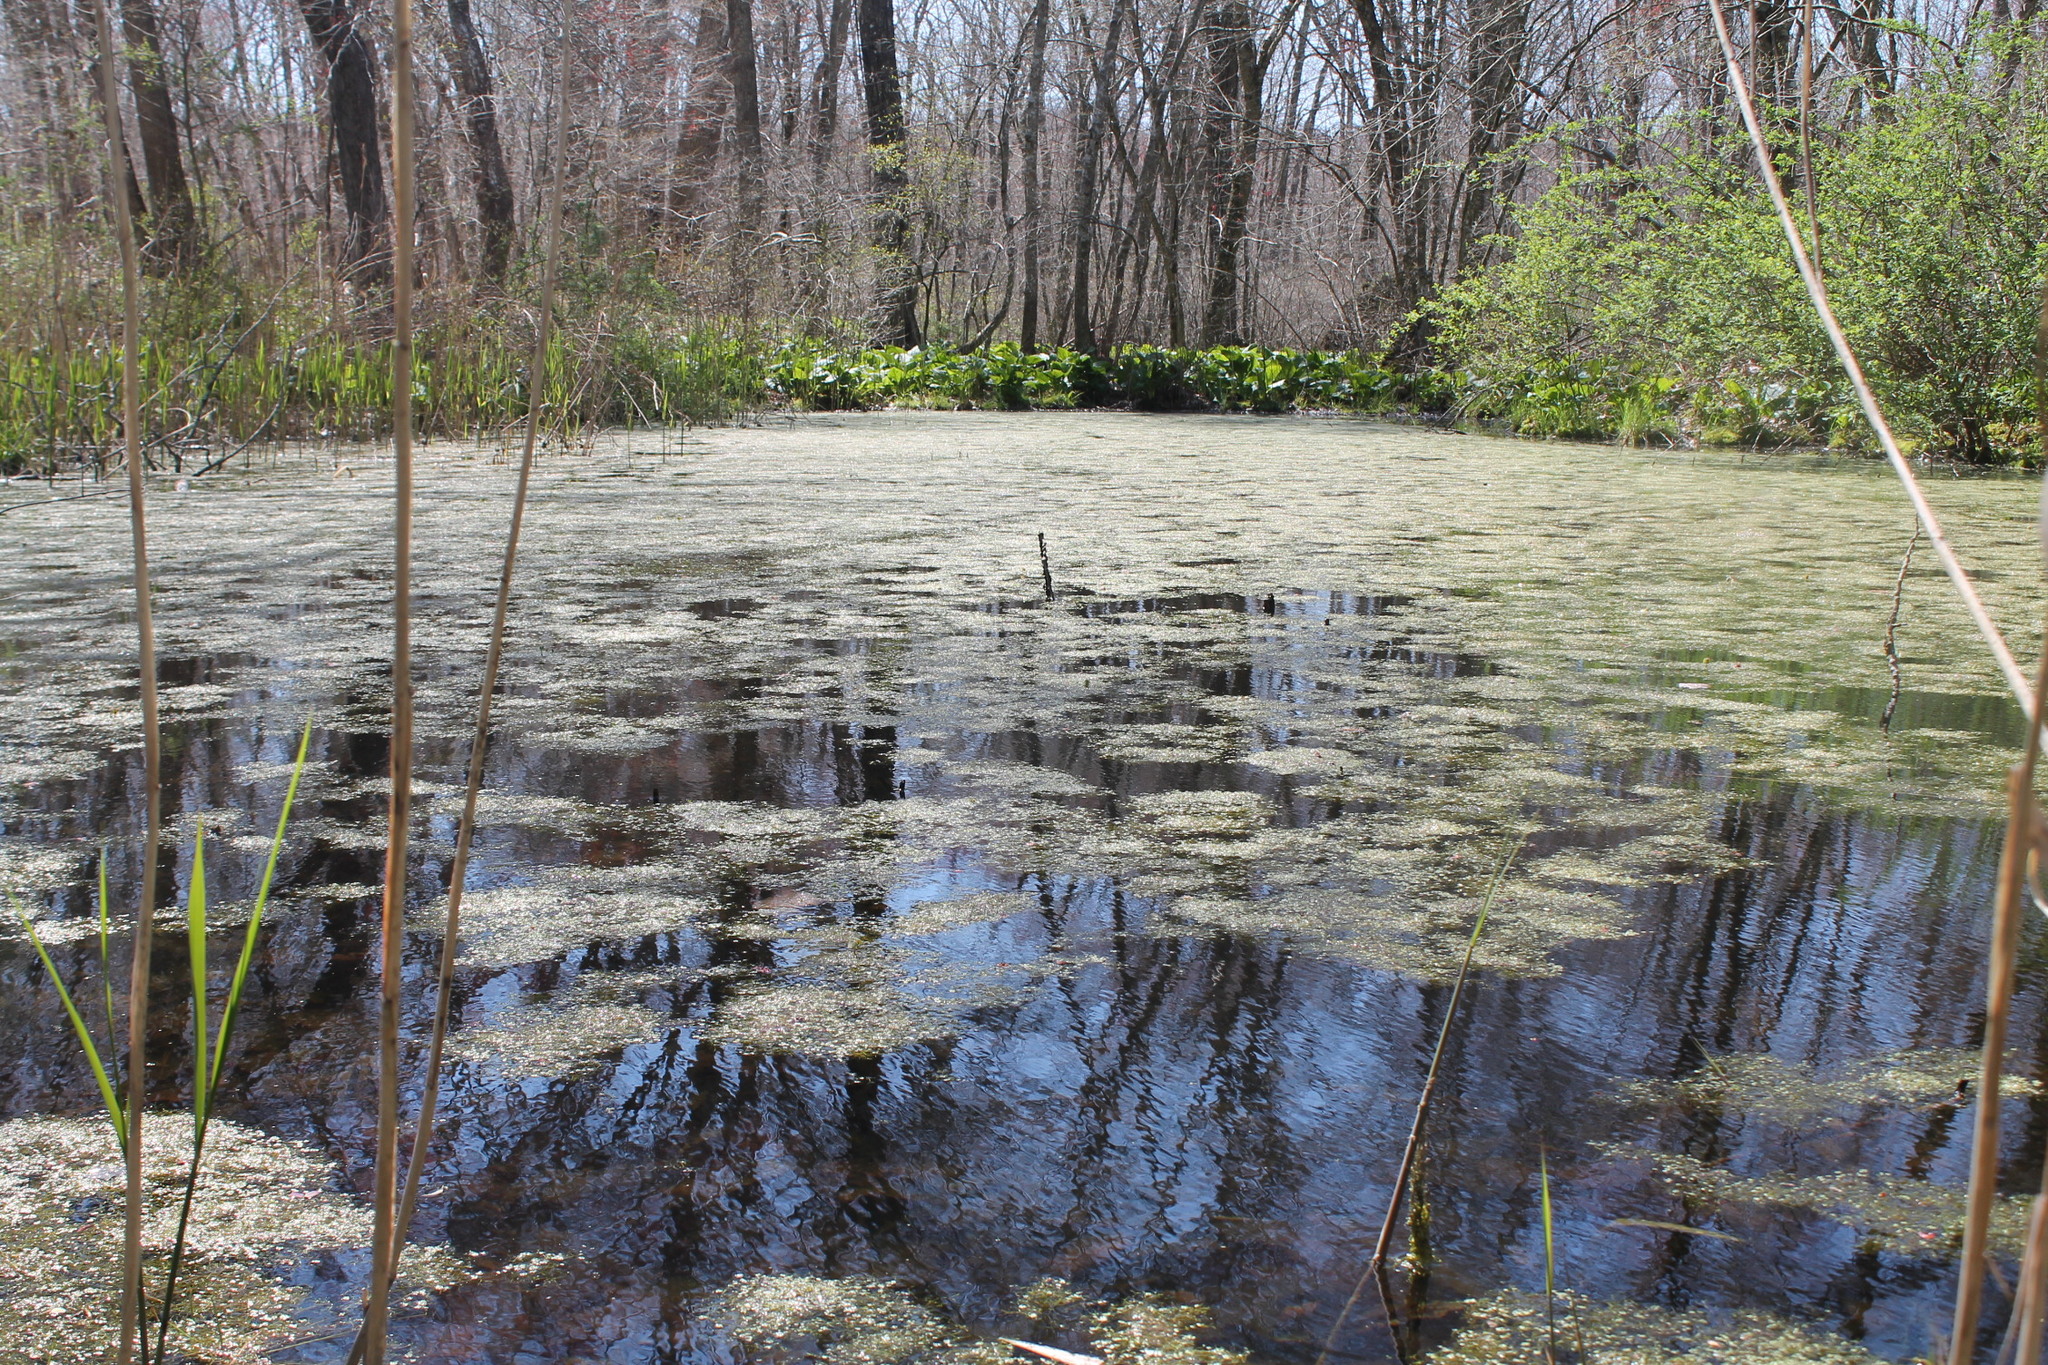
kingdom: Plantae
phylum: Tracheophyta
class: Liliopsida
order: Alismatales
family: Araceae
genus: Lemna
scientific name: Lemna minor
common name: Common duckweed
